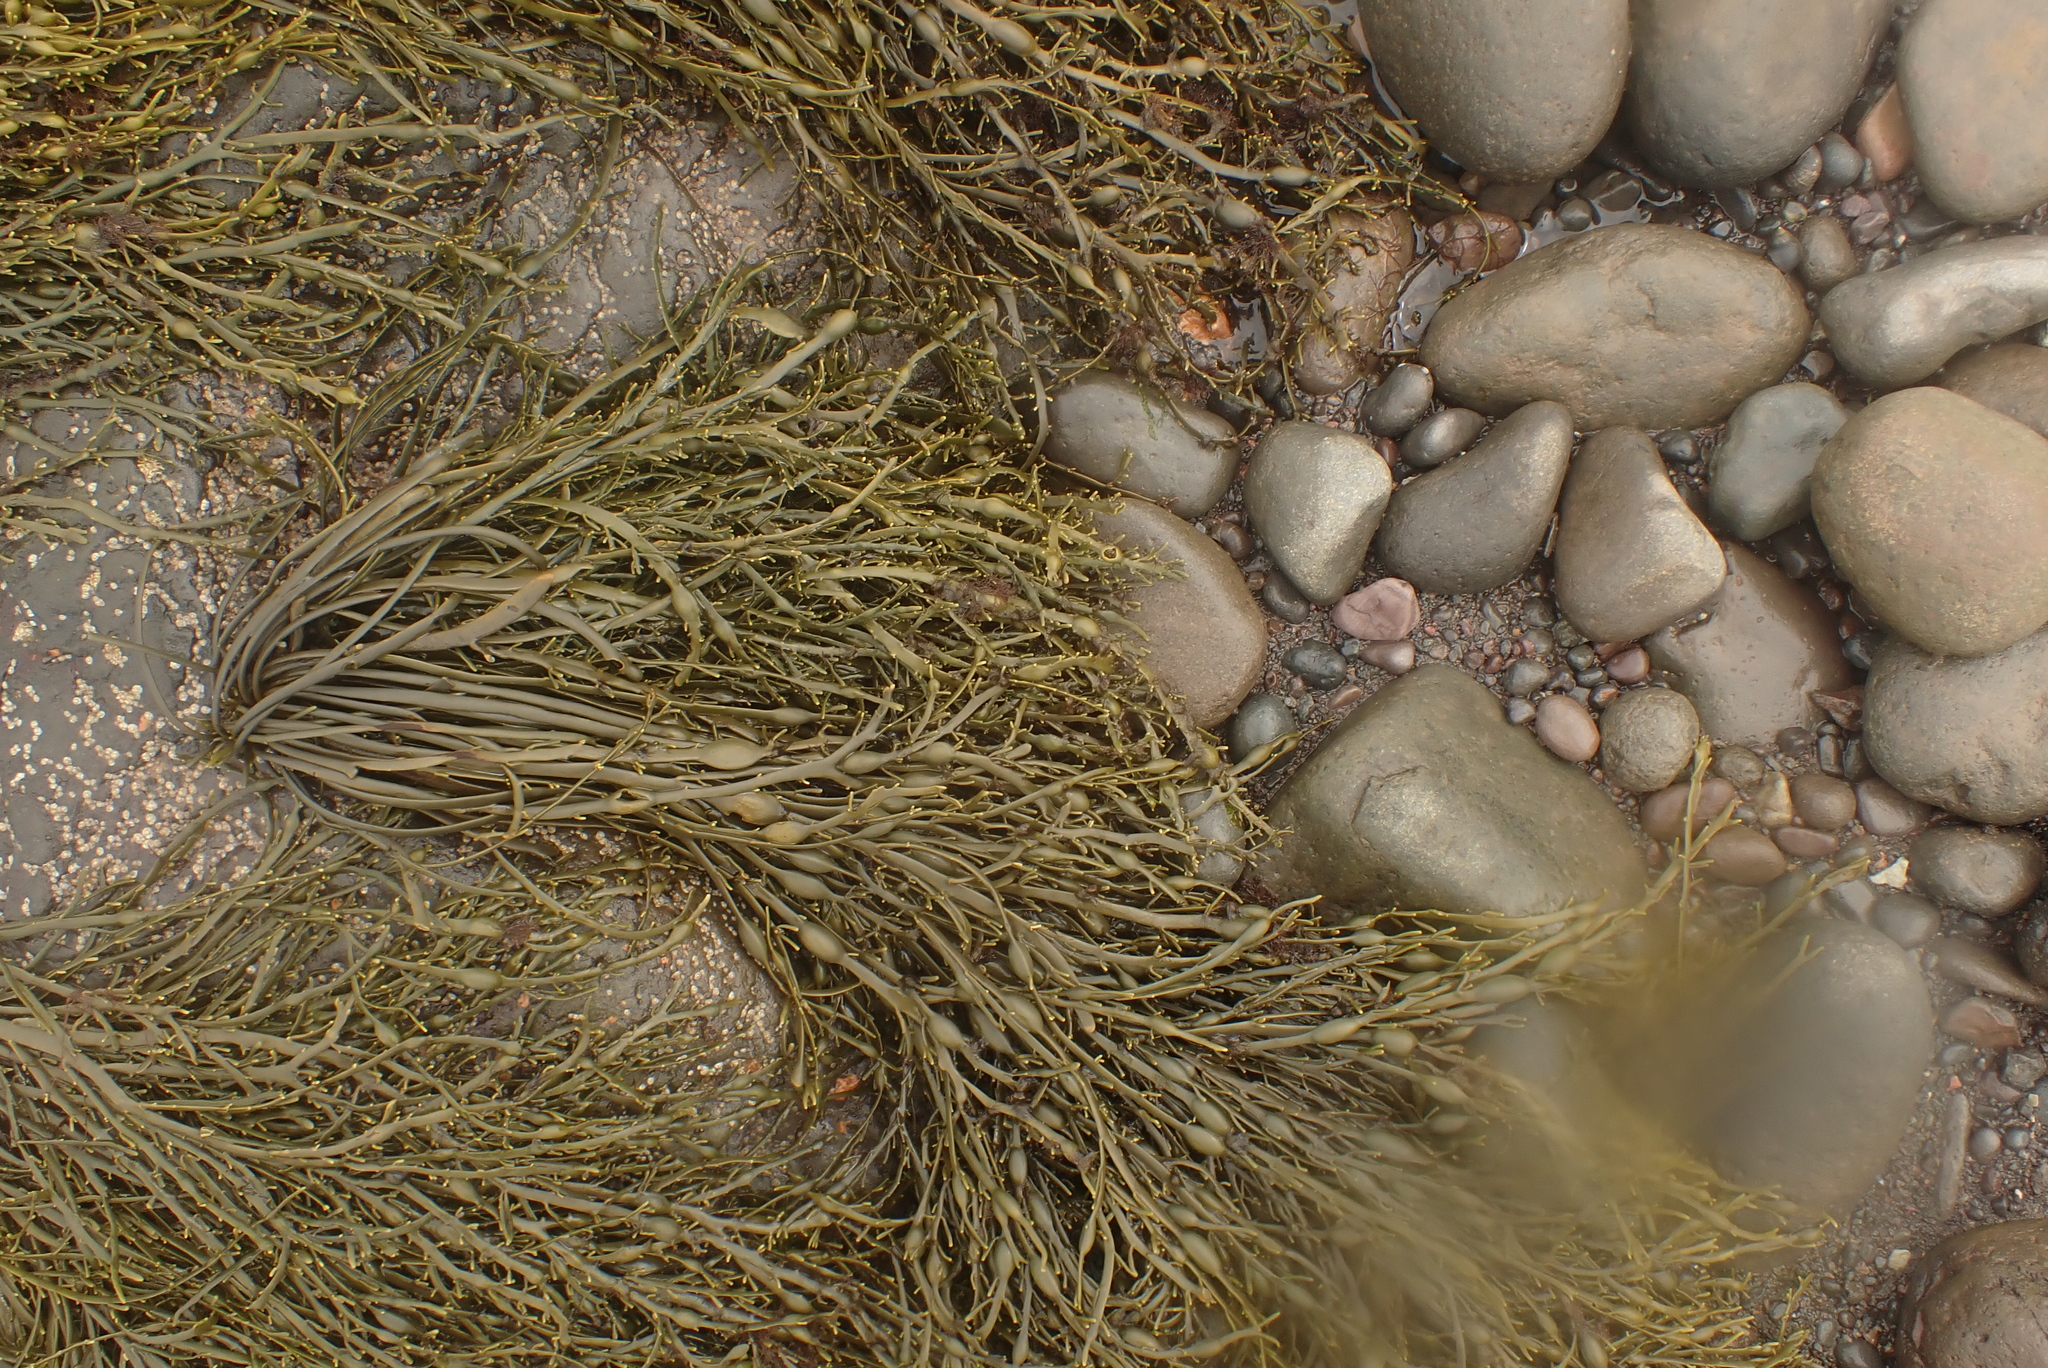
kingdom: Chromista
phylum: Ochrophyta
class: Phaeophyceae
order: Fucales
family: Fucaceae
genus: Ascophyllum
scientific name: Ascophyllum nodosum
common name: Knotted wrack
